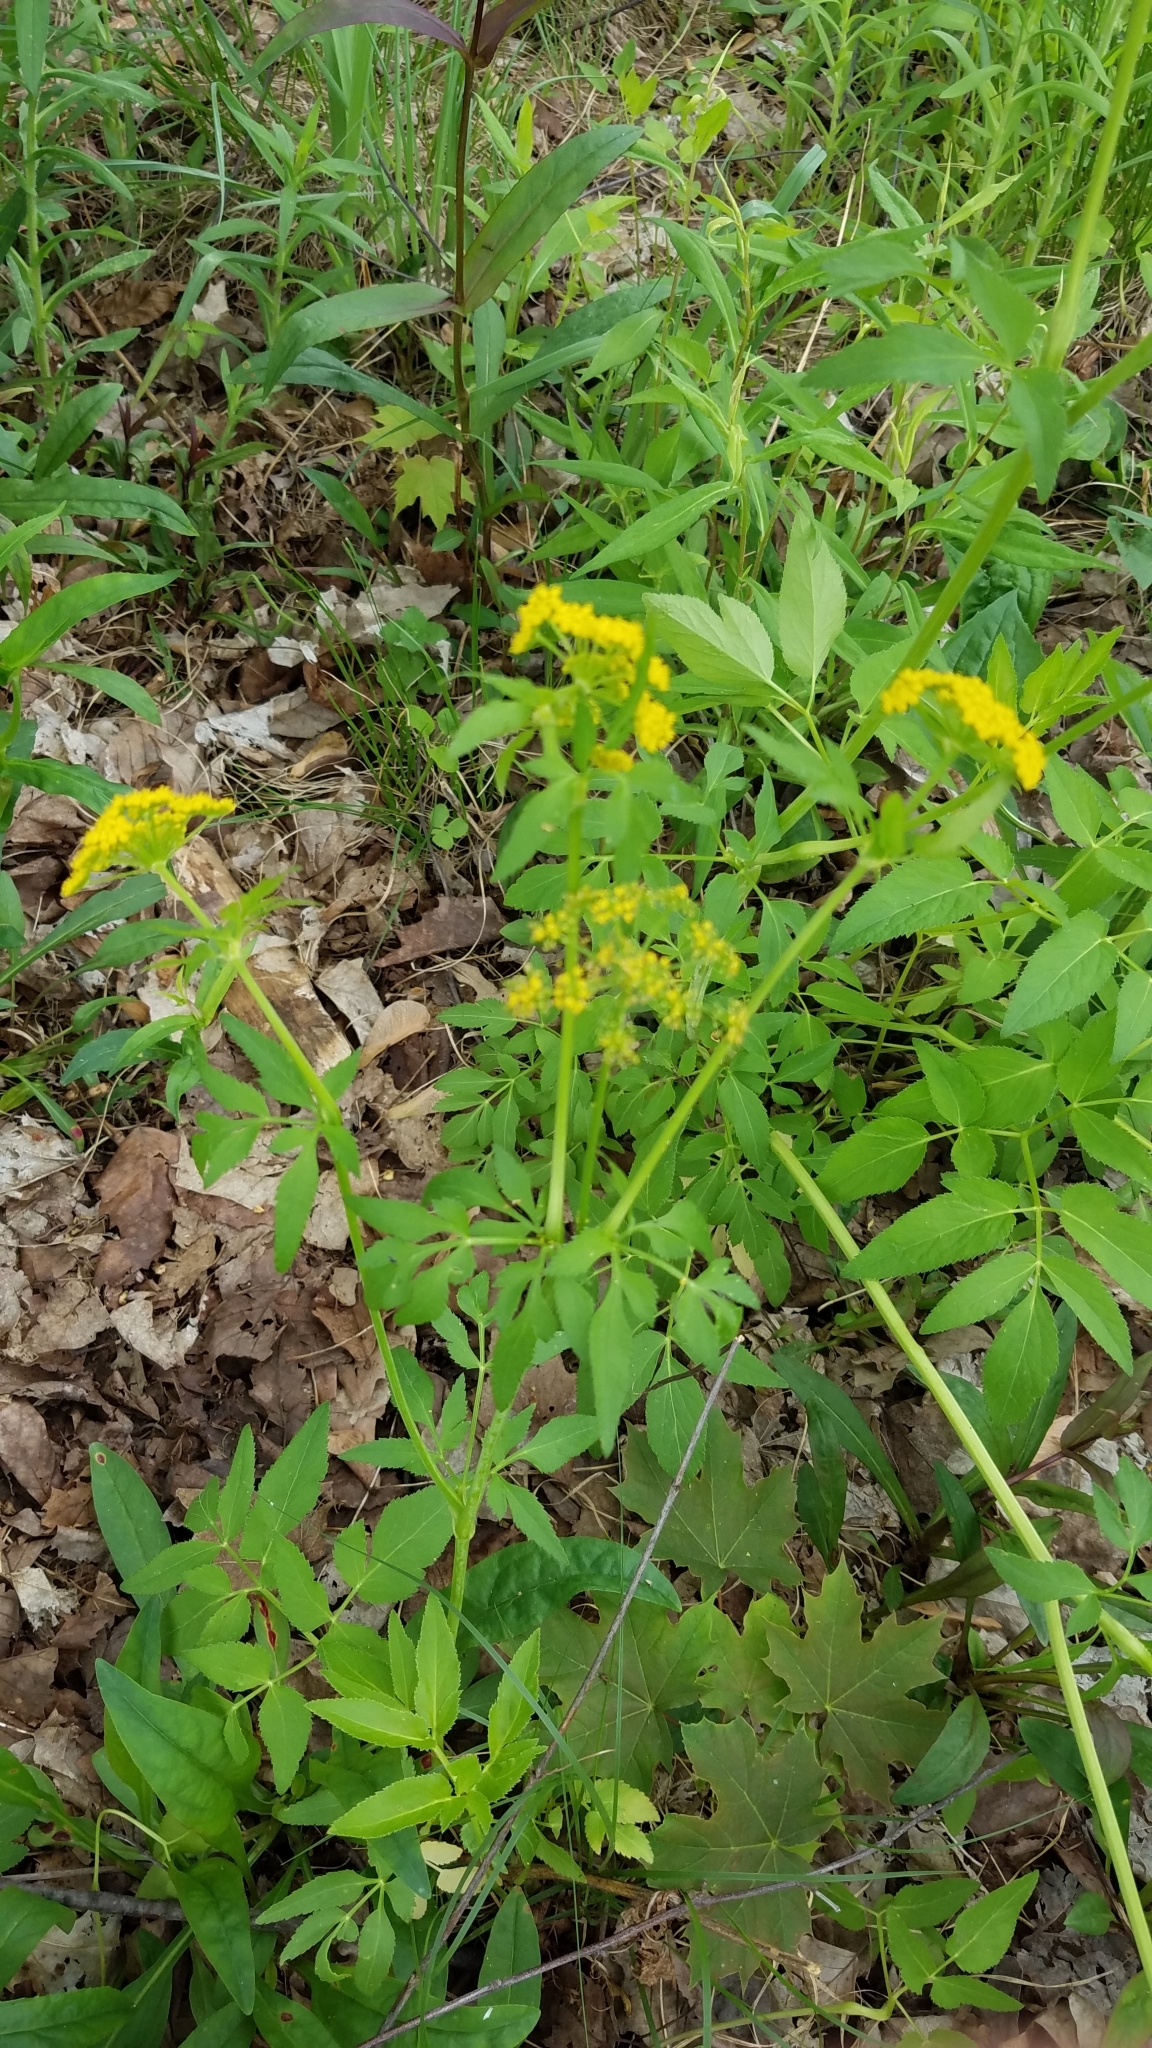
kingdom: Plantae
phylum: Tracheophyta
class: Magnoliopsida
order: Apiales
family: Apiaceae
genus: Zizia
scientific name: Zizia aurea
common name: Golden alexanders
